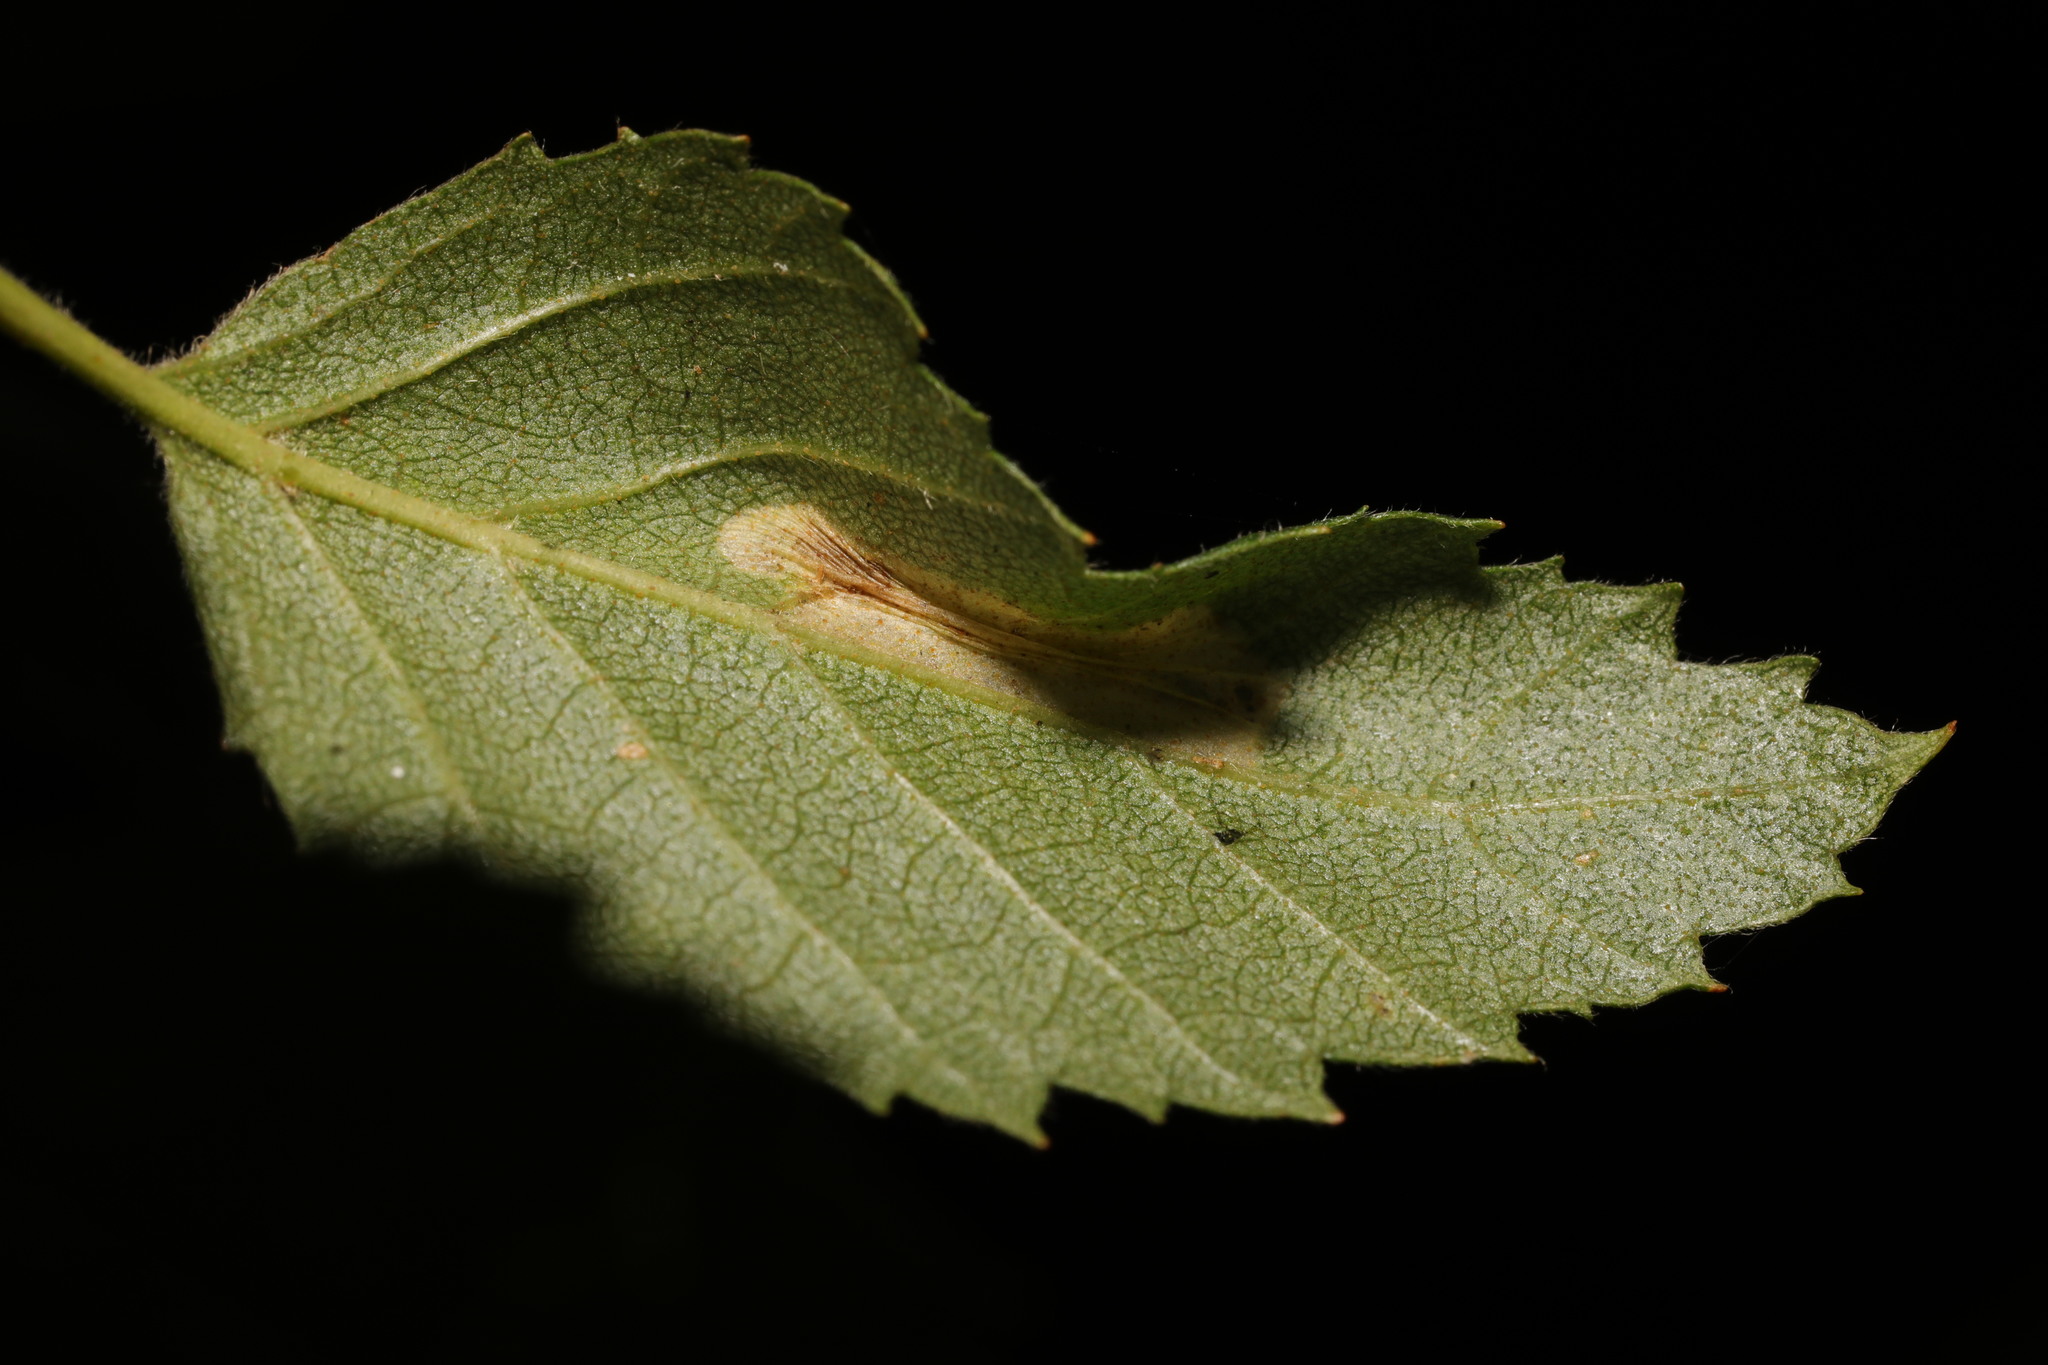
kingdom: Animalia
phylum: Arthropoda
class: Insecta
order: Lepidoptera
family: Gracillariidae
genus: Phyllonorycter
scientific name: Phyllonorycter ulmifoliella
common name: Red birch midget
